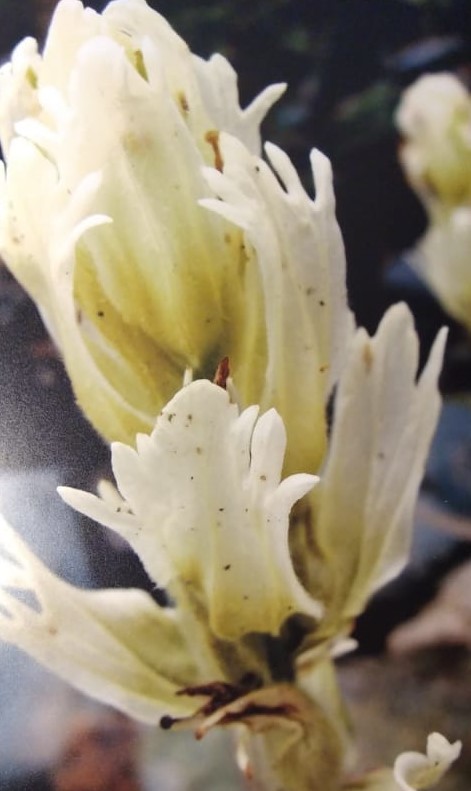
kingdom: Plantae
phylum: Tracheophyta
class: Magnoliopsida
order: Lamiales
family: Orobanchaceae
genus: Castilleja
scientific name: Castilleja pallida
